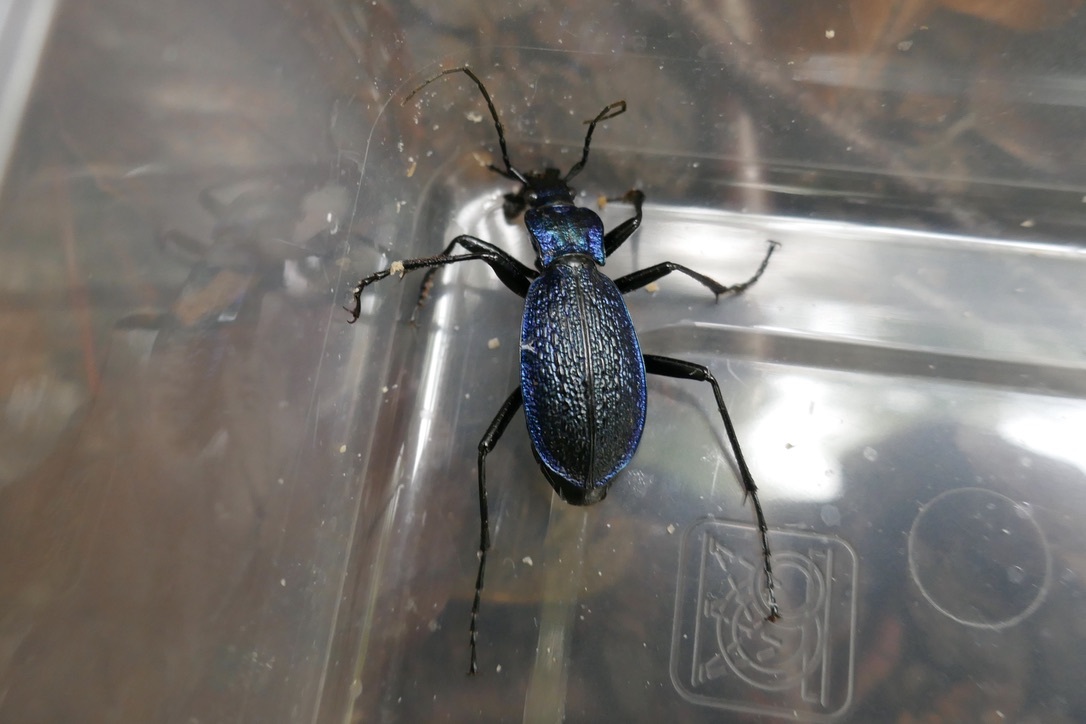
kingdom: Animalia
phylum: Arthropoda
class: Insecta
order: Coleoptera
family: Carabidae
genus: Carabus
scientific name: Carabus intricatus
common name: Blue ground beetle
